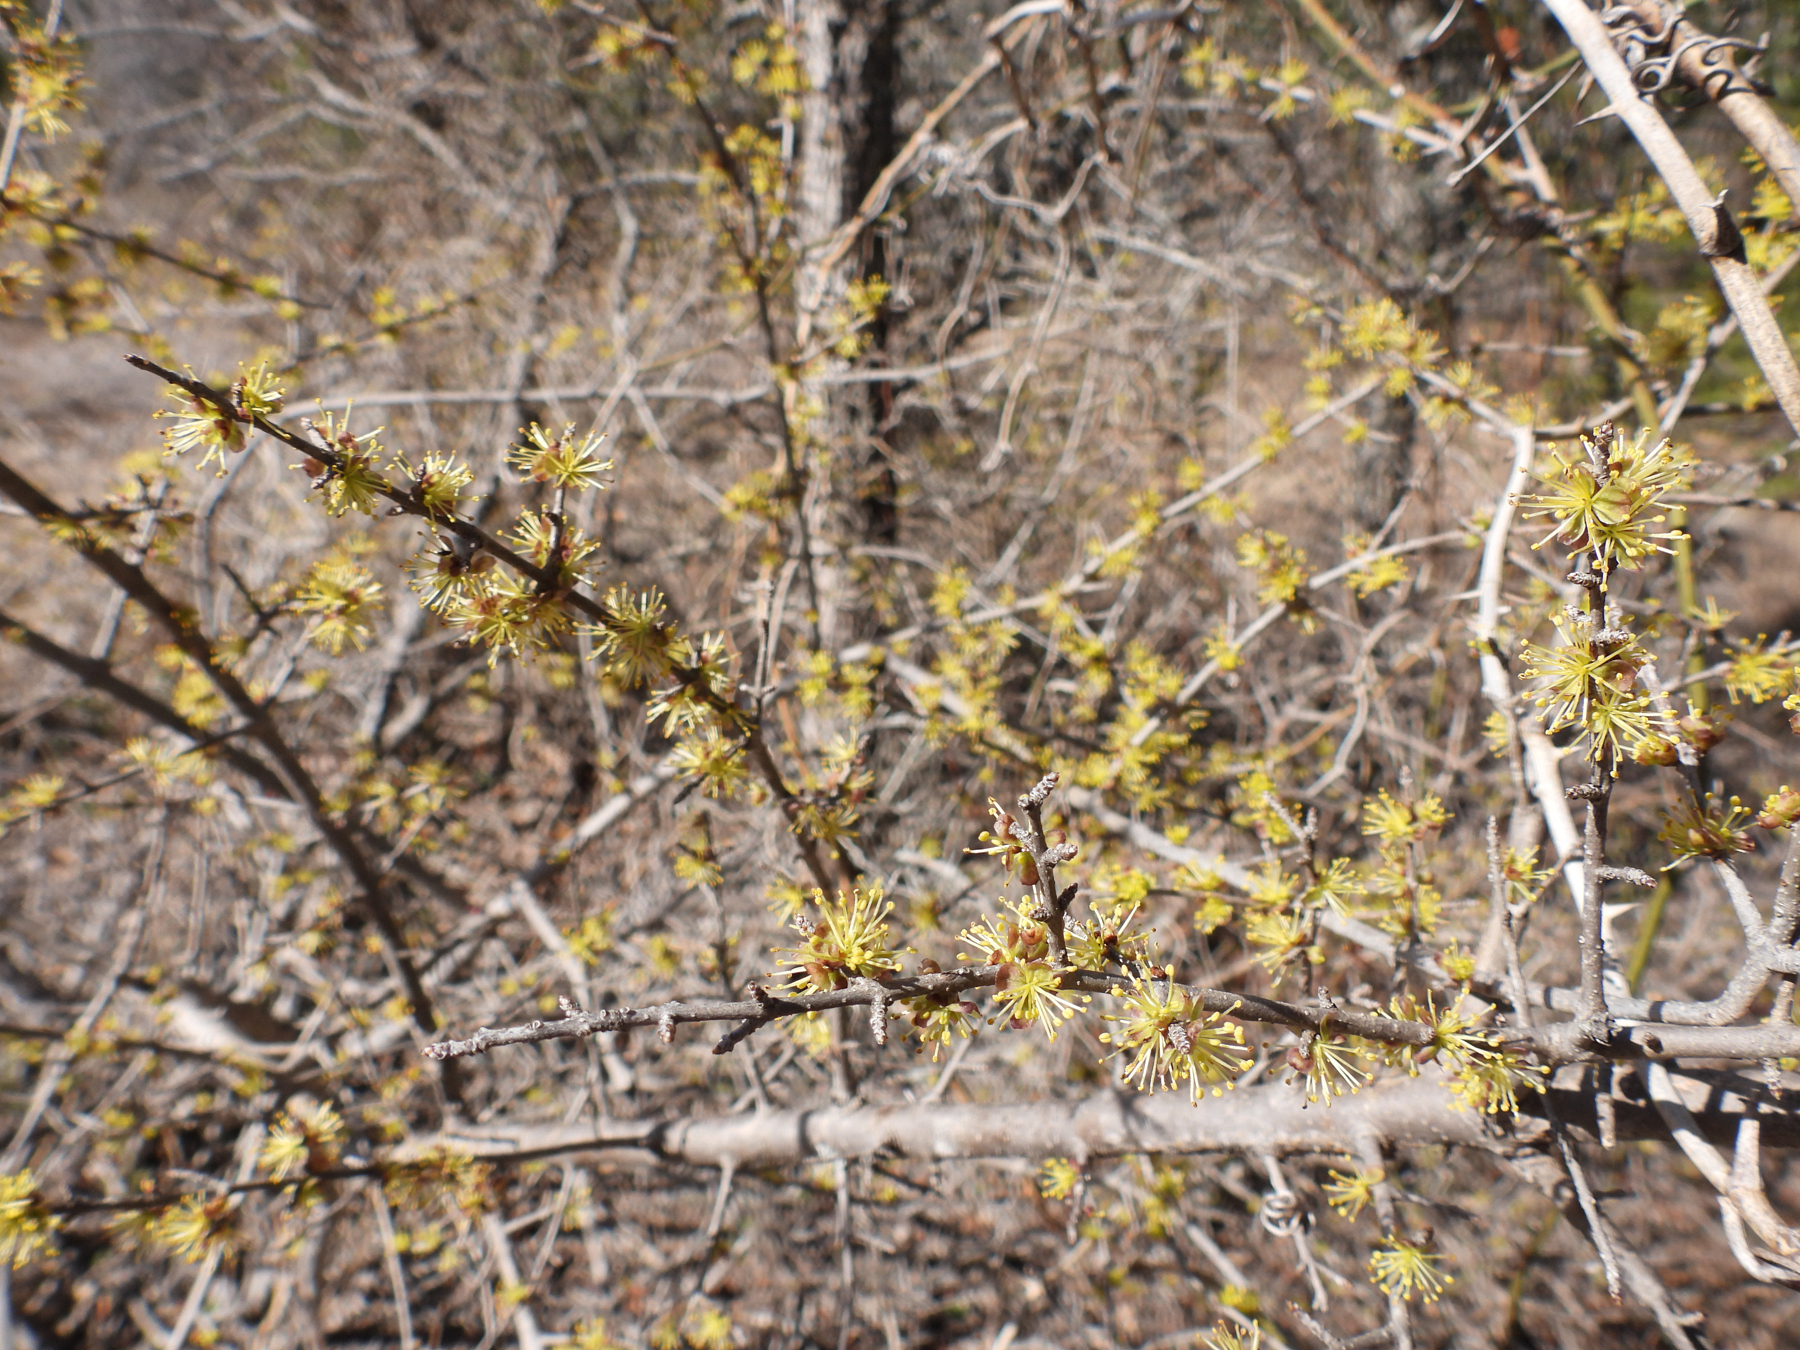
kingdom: Plantae
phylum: Tracheophyta
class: Magnoliopsida
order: Lamiales
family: Oleaceae
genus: Forestiera
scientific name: Forestiera pubescens
